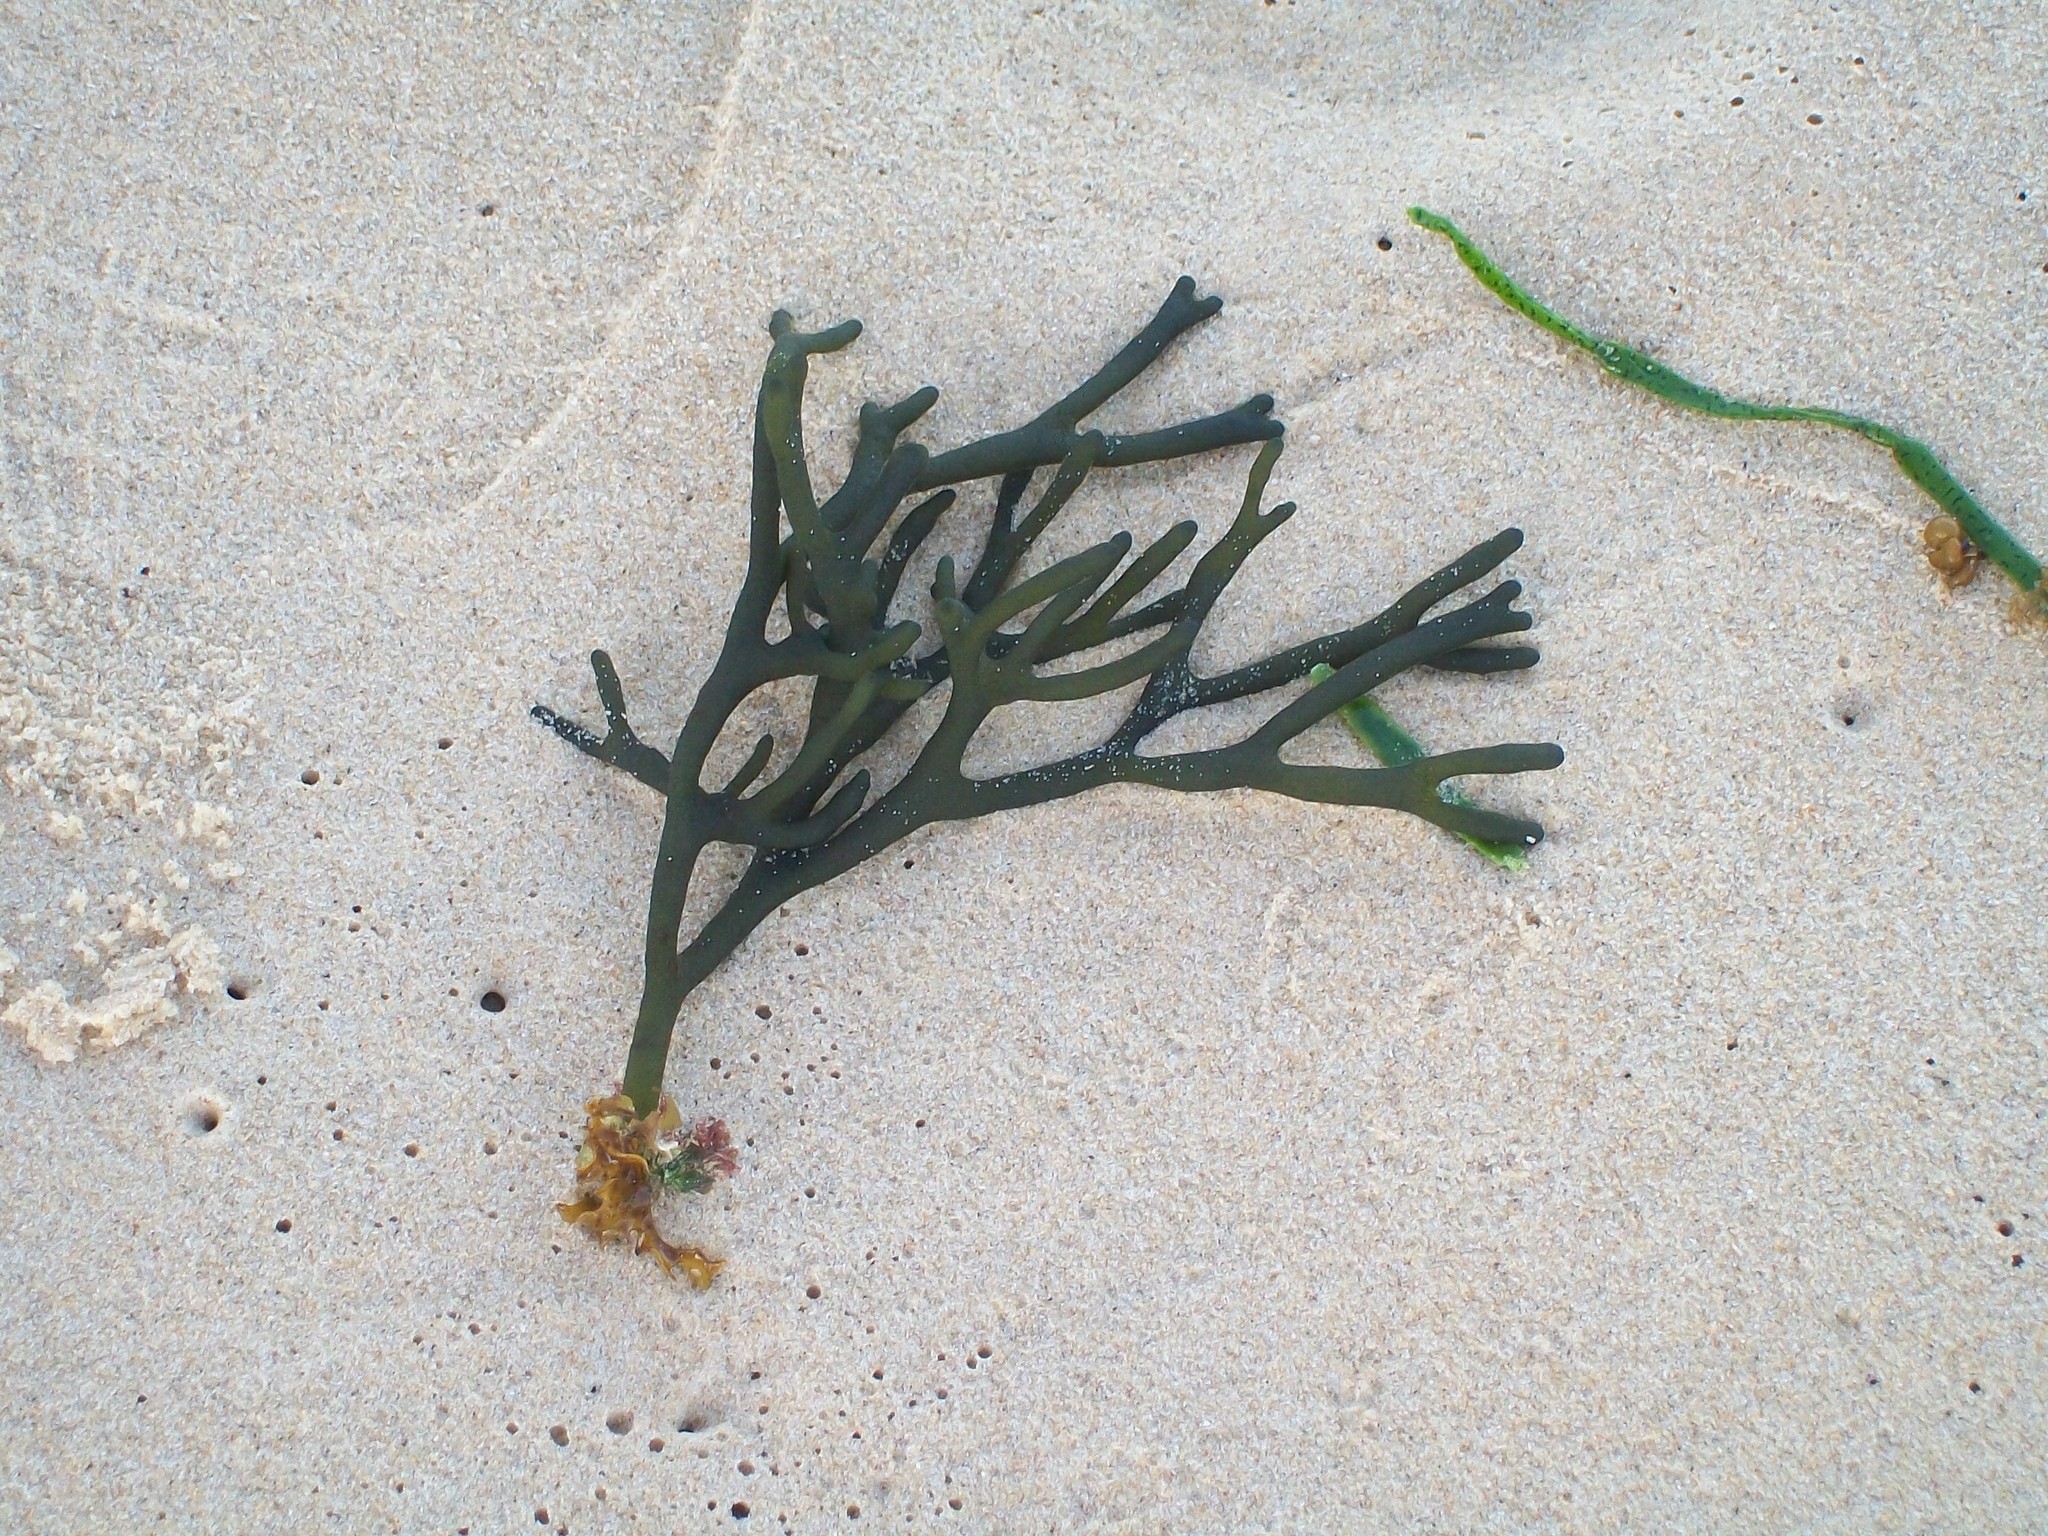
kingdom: Plantae
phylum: Chlorophyta
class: Ulvophyceae
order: Bryopsidales
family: Codiaceae
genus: Codium
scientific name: Codium fragile
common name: Dead man's fingers
